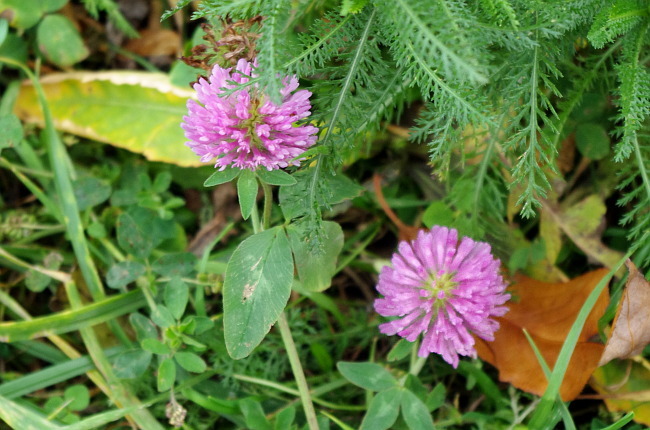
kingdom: Plantae
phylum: Tracheophyta
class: Magnoliopsida
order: Fabales
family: Fabaceae
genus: Trifolium
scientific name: Trifolium pratense
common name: Red clover
